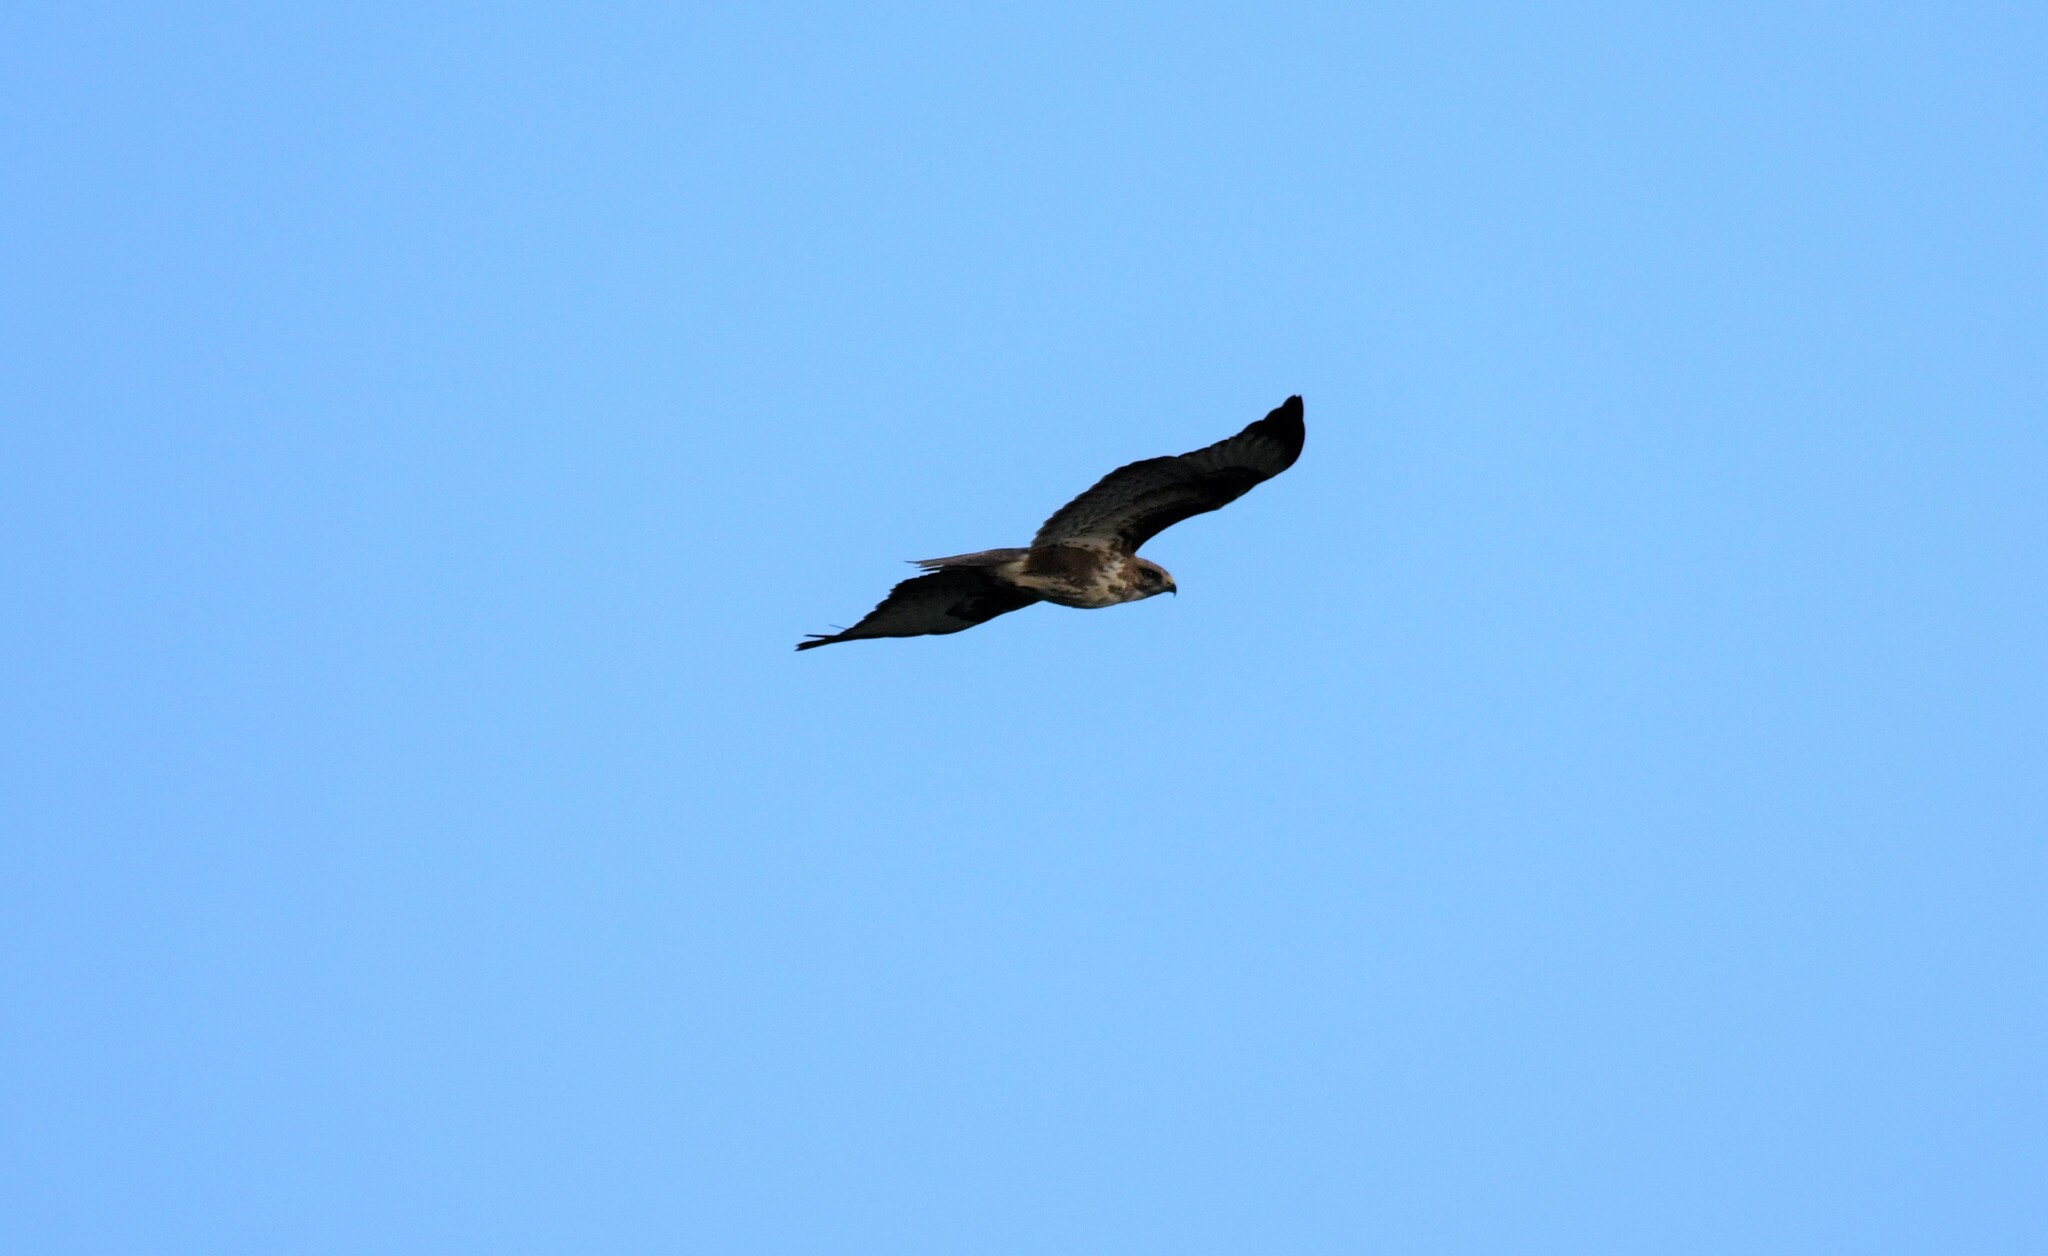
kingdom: Animalia
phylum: Chordata
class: Aves
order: Accipitriformes
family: Accipitridae
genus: Buteo
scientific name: Buteo buteo
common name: Common buzzard
